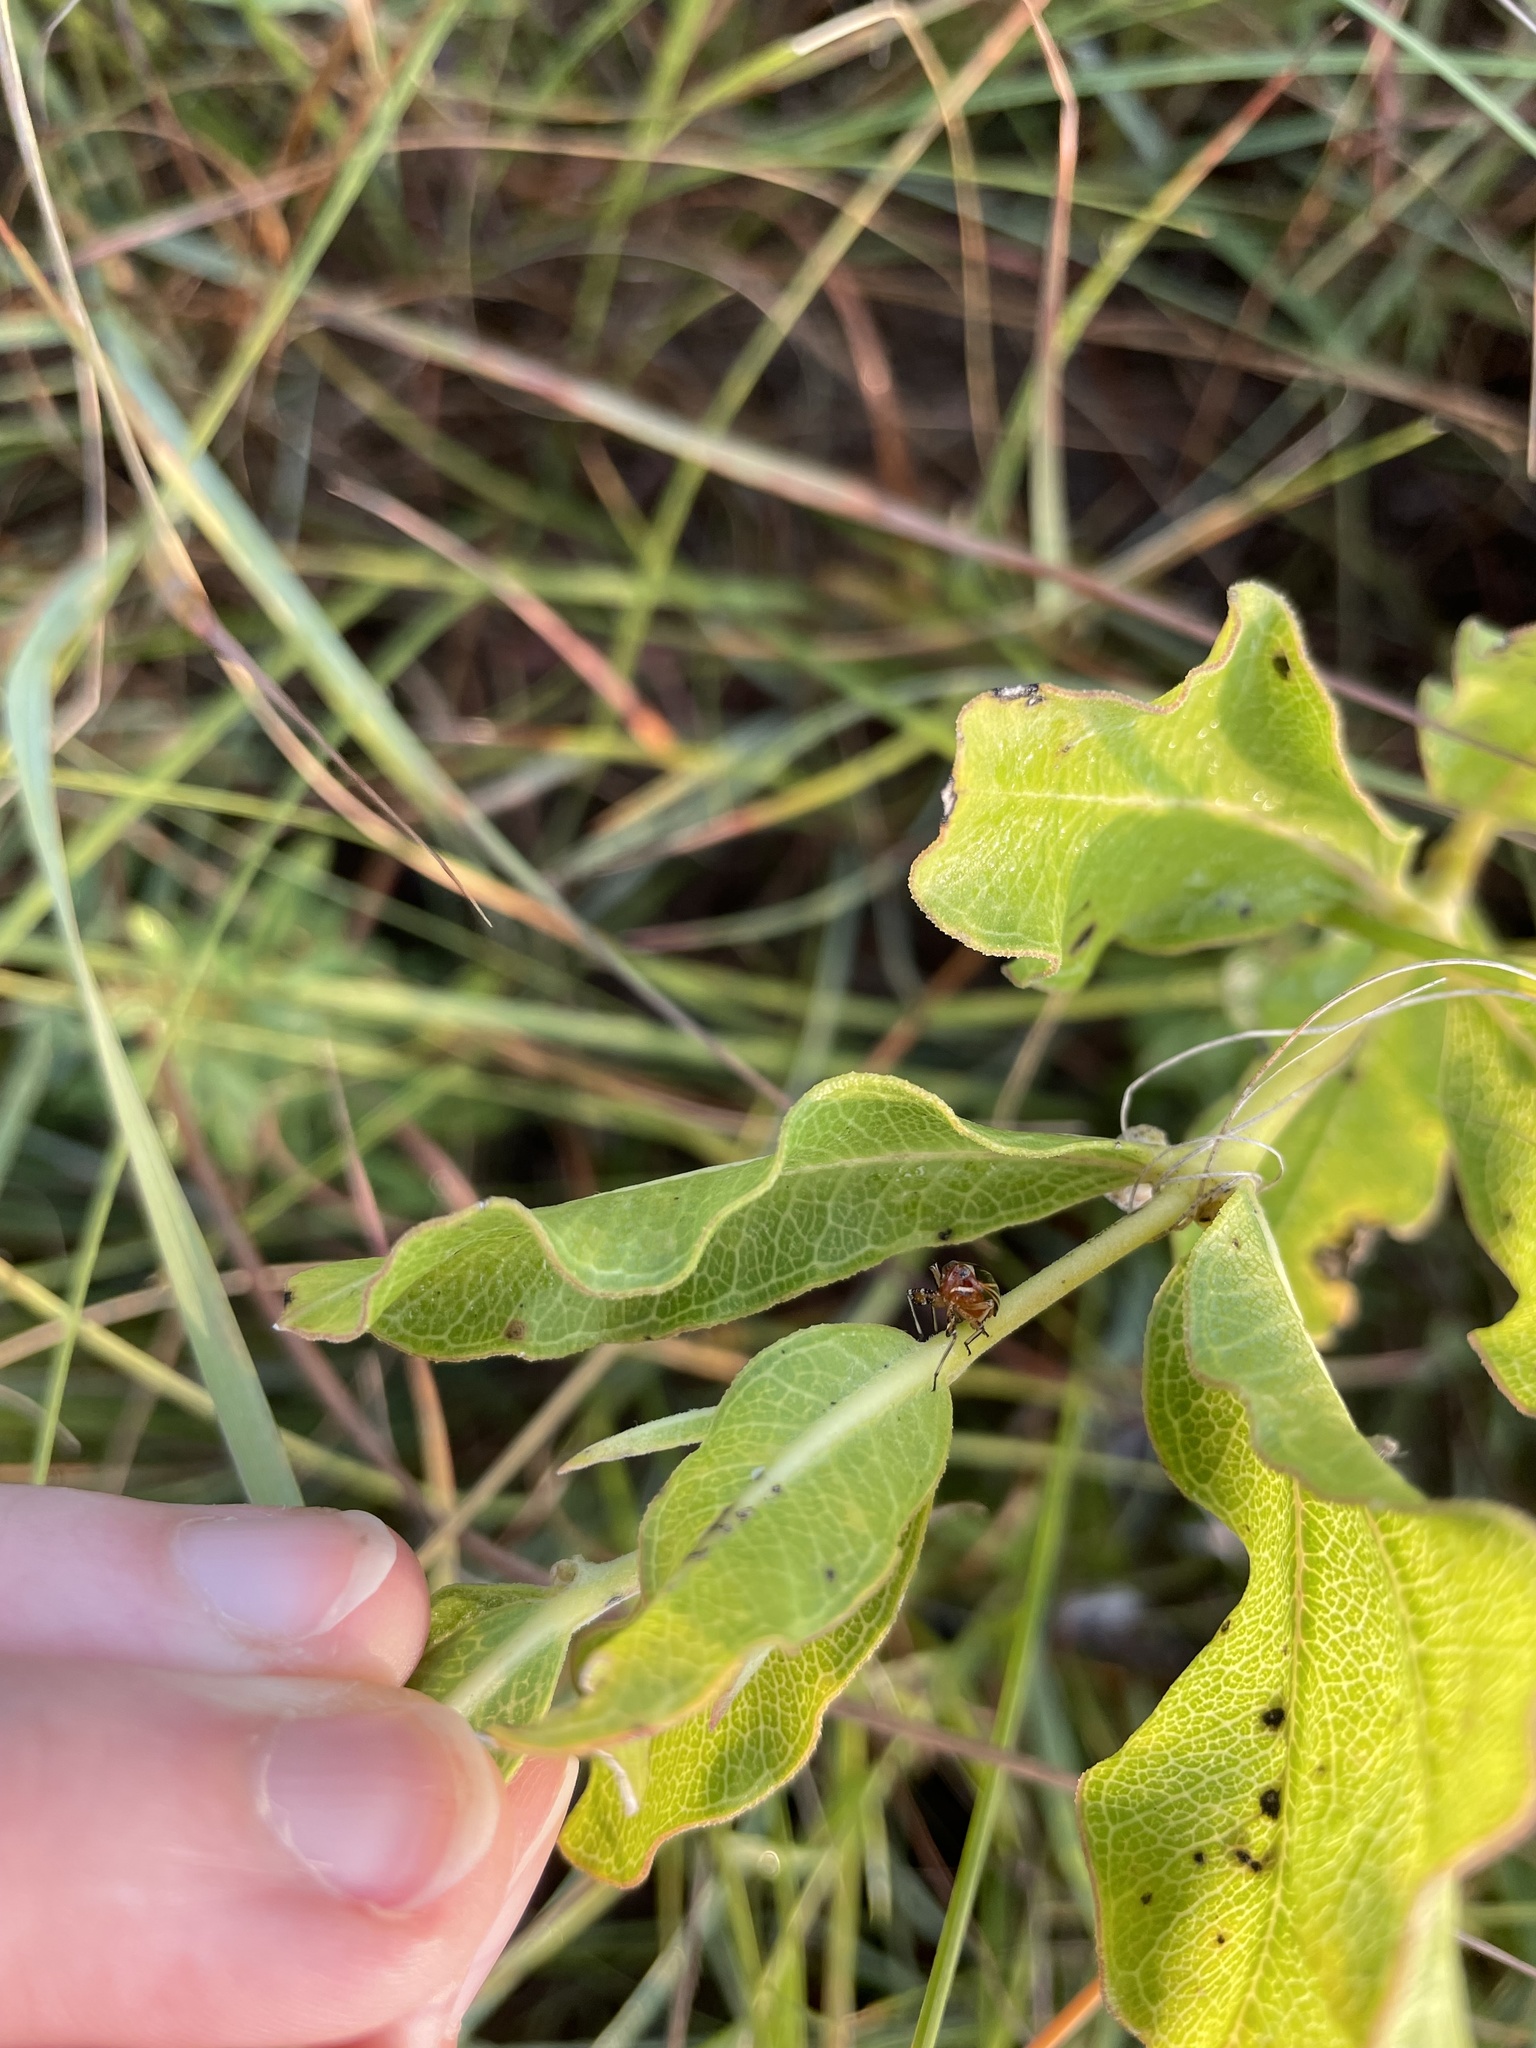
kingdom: Animalia
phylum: Arthropoda
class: Insecta
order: Hemiptera
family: Achilidae
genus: Isodaemon
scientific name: Isodaemon orontes
